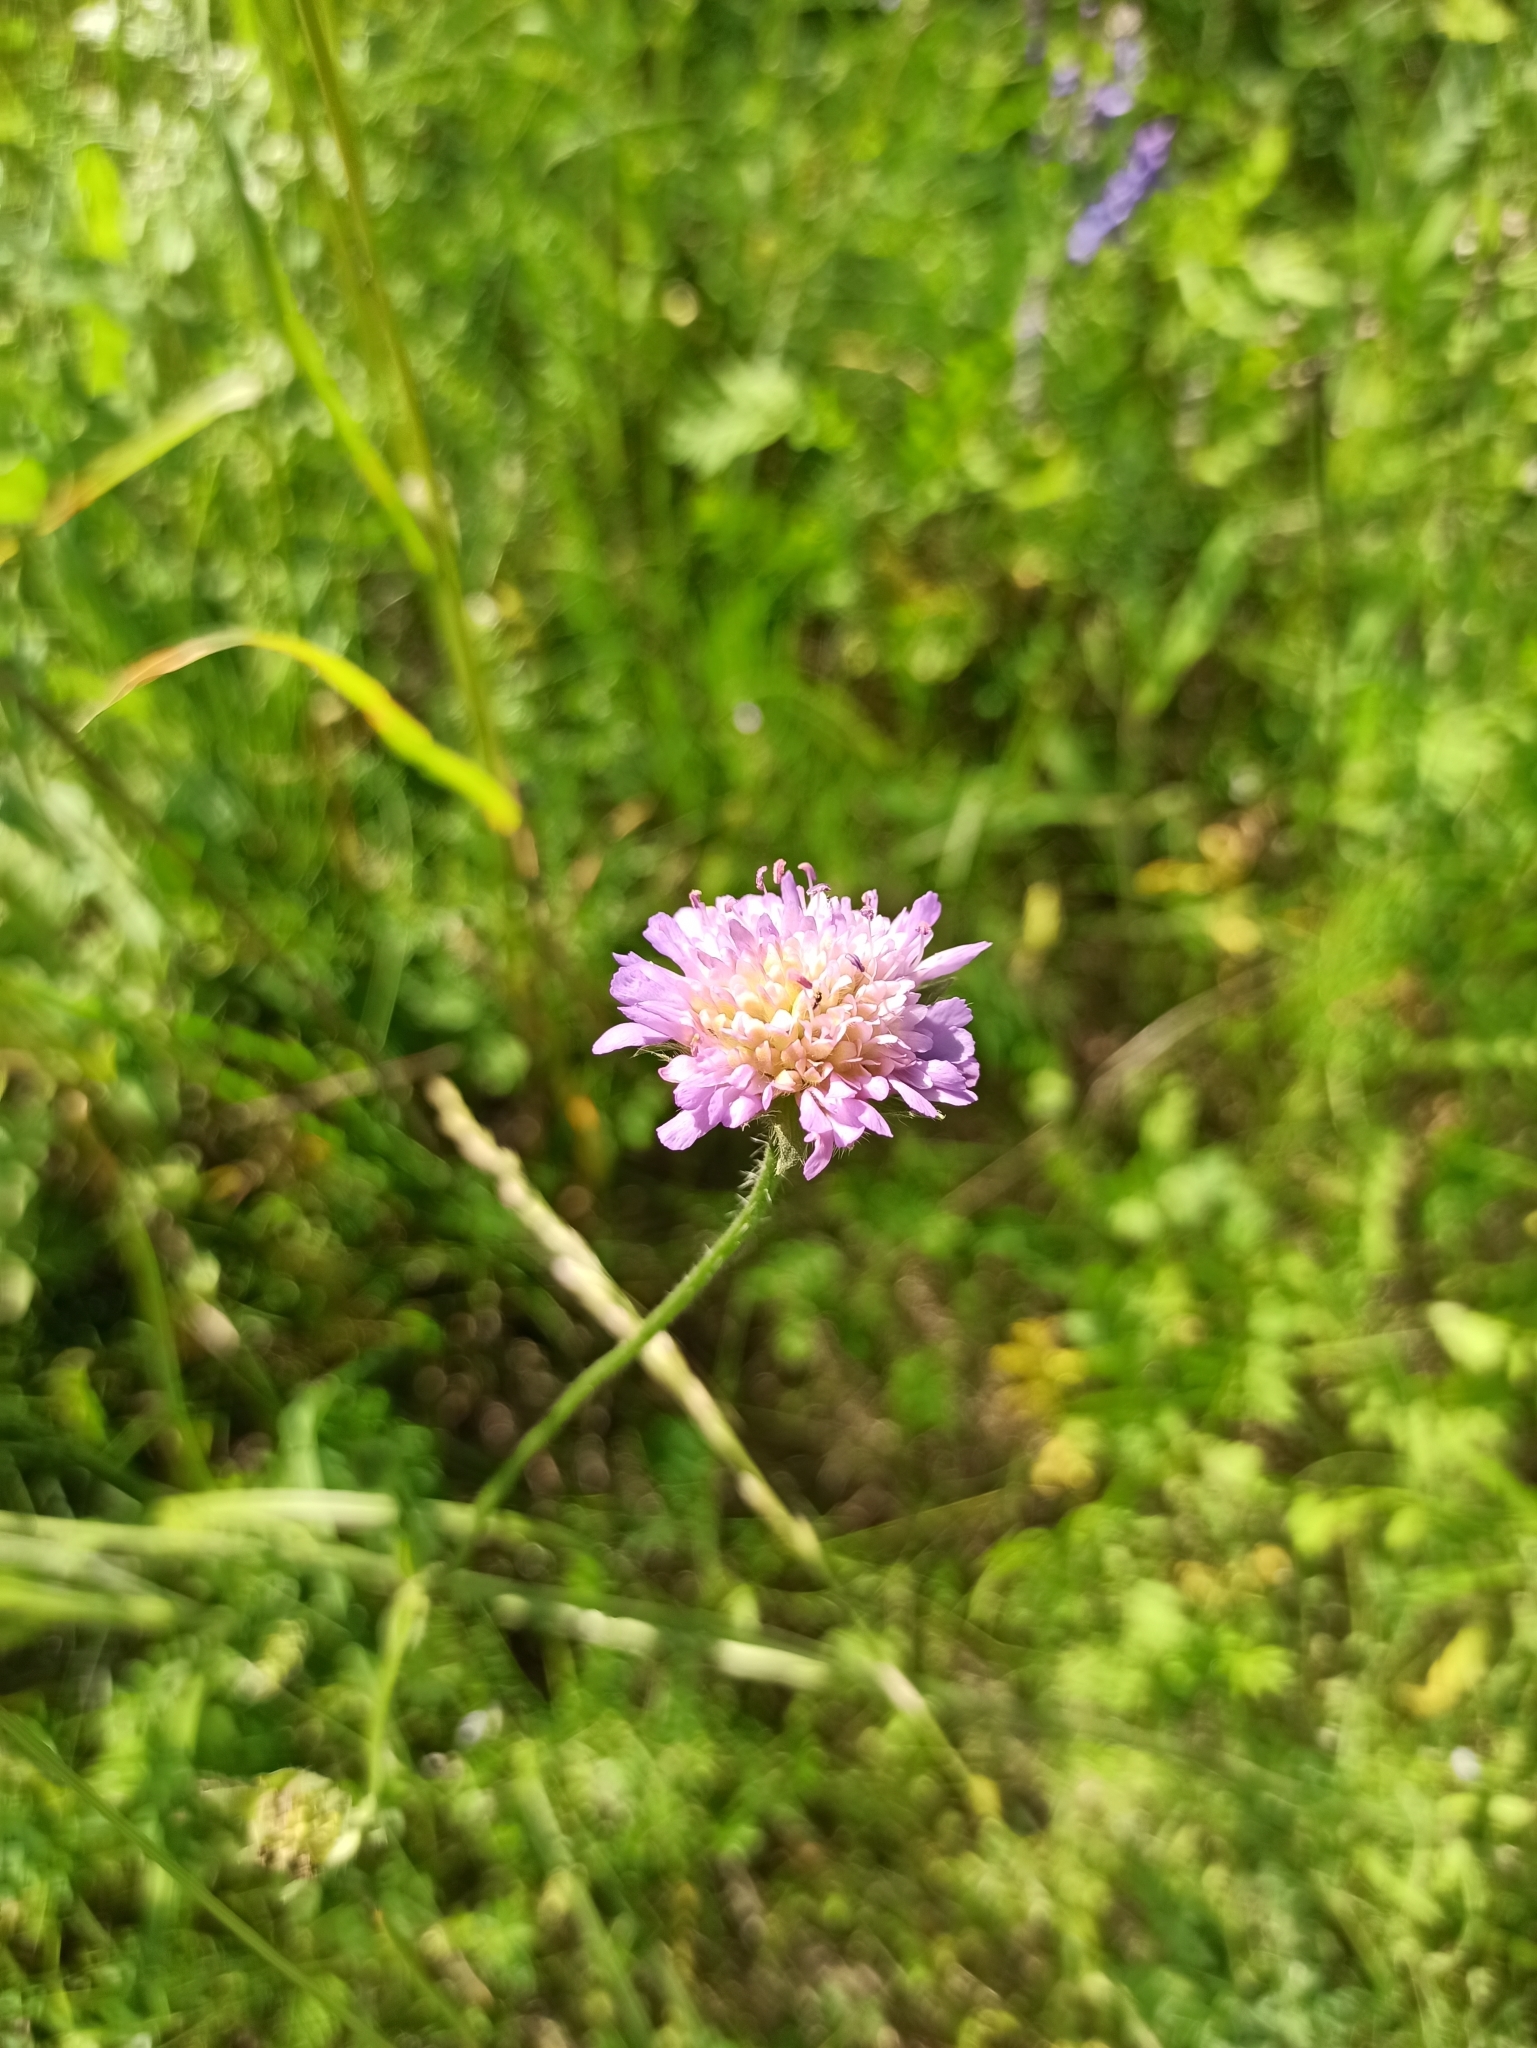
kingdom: Plantae
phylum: Tracheophyta
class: Magnoliopsida
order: Dipsacales
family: Caprifoliaceae
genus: Knautia
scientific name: Knautia arvensis
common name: Field scabiosa
